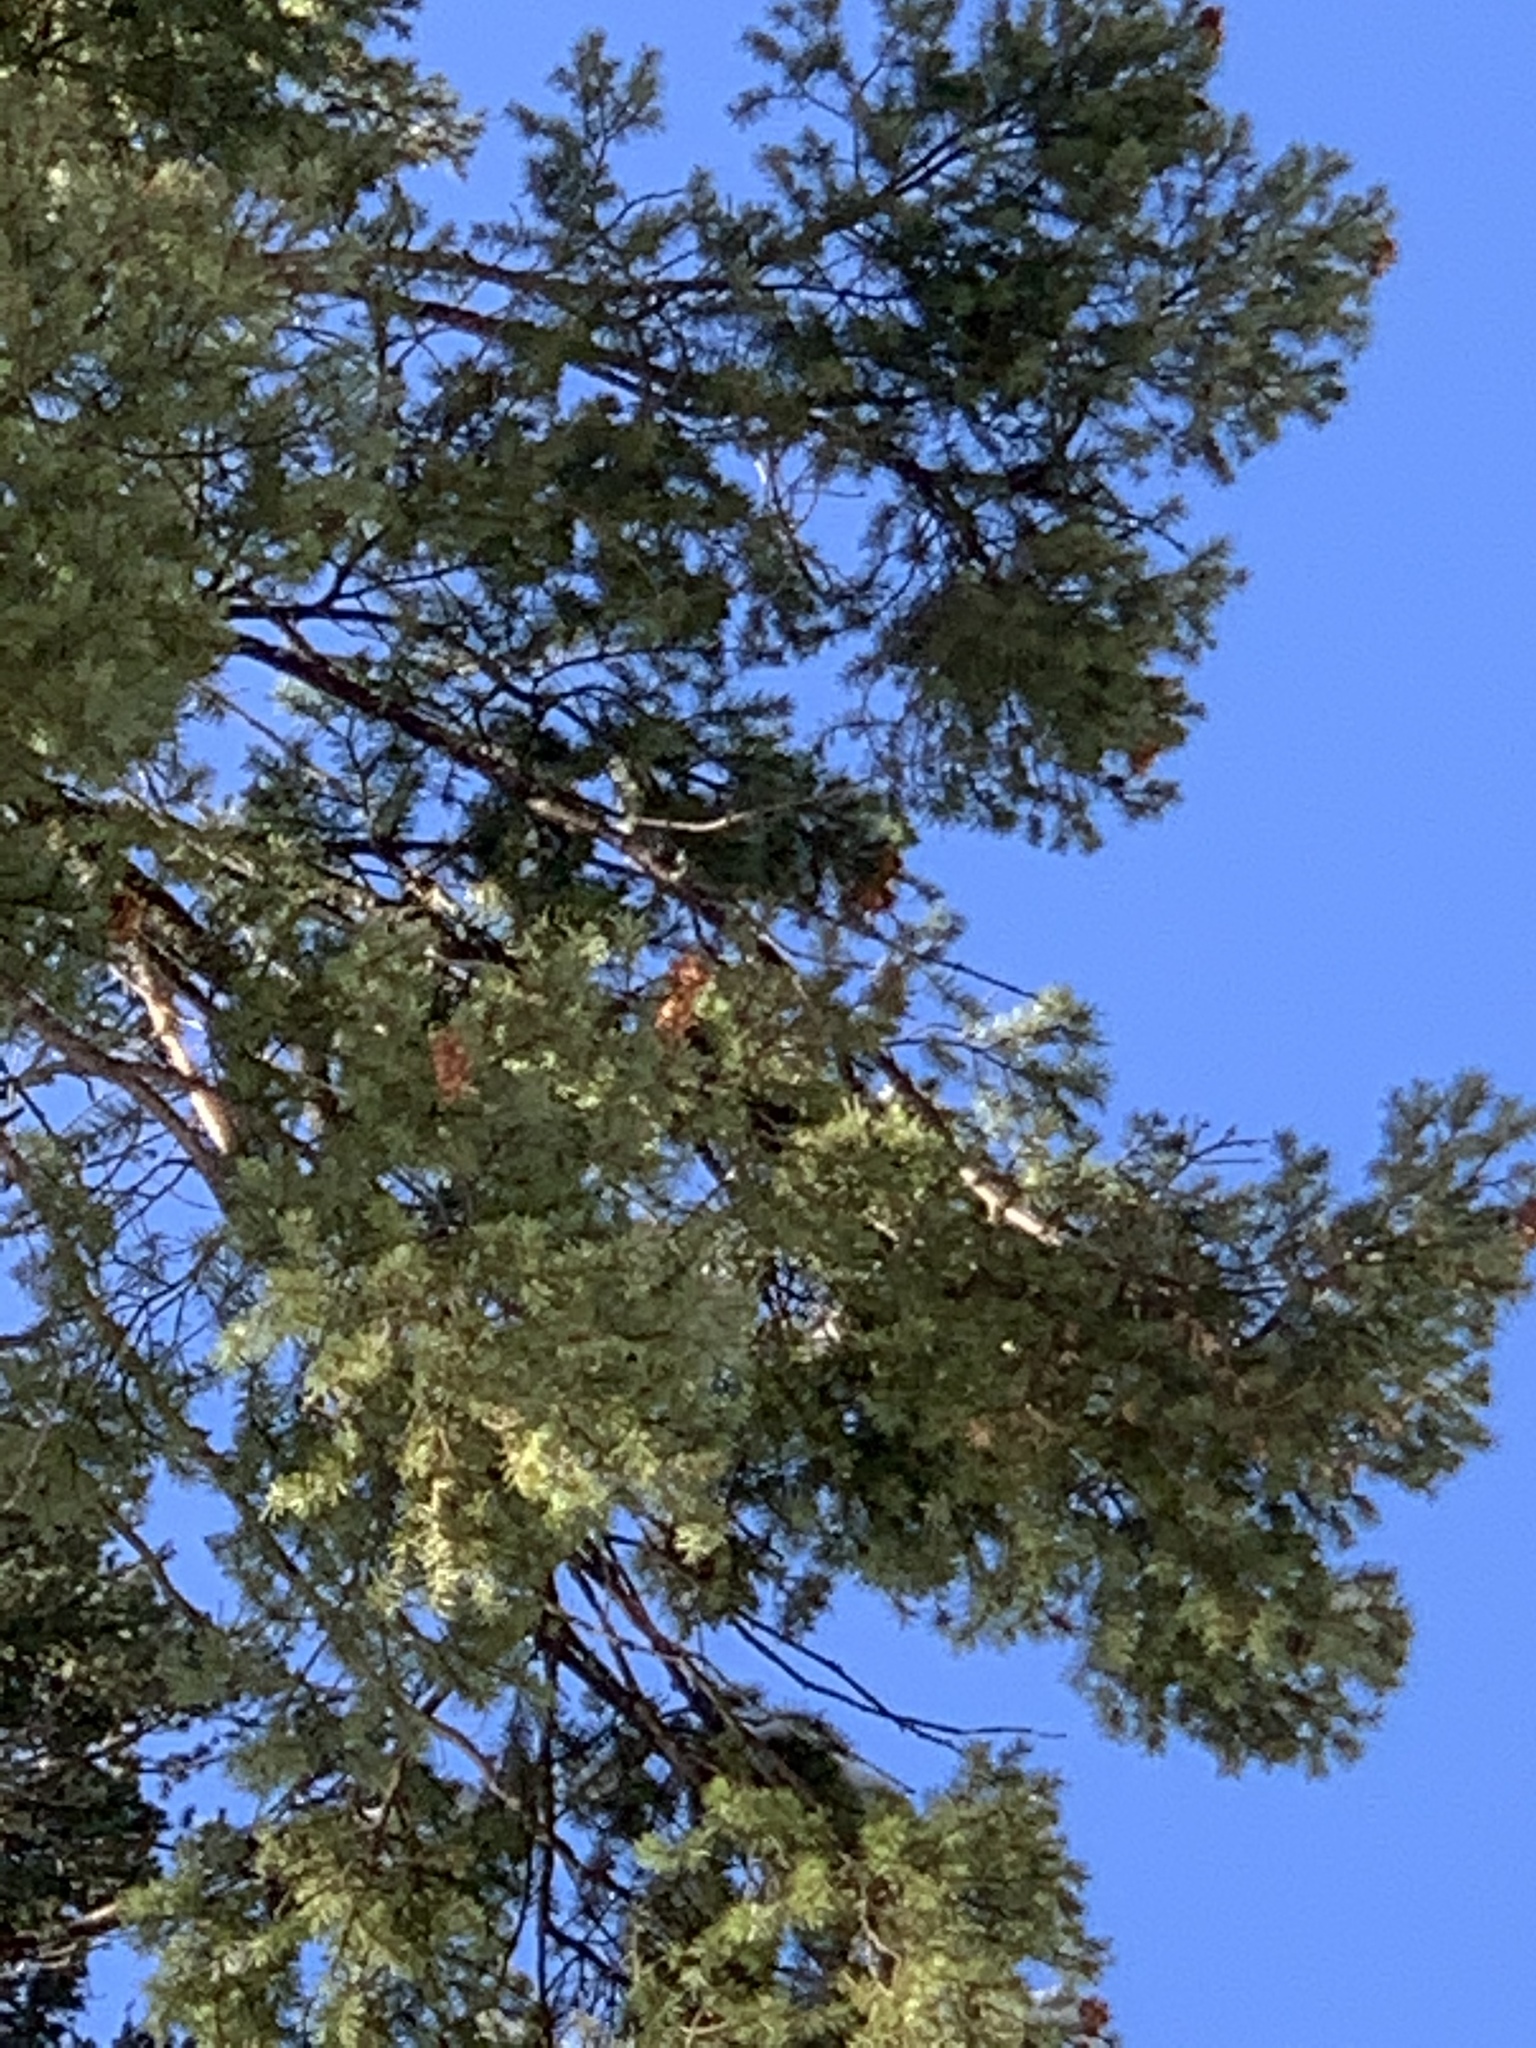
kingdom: Plantae
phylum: Tracheophyta
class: Pinopsida
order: Pinales
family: Pinaceae
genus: Pseudotsuga
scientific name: Pseudotsuga menziesii
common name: Douglas fir
